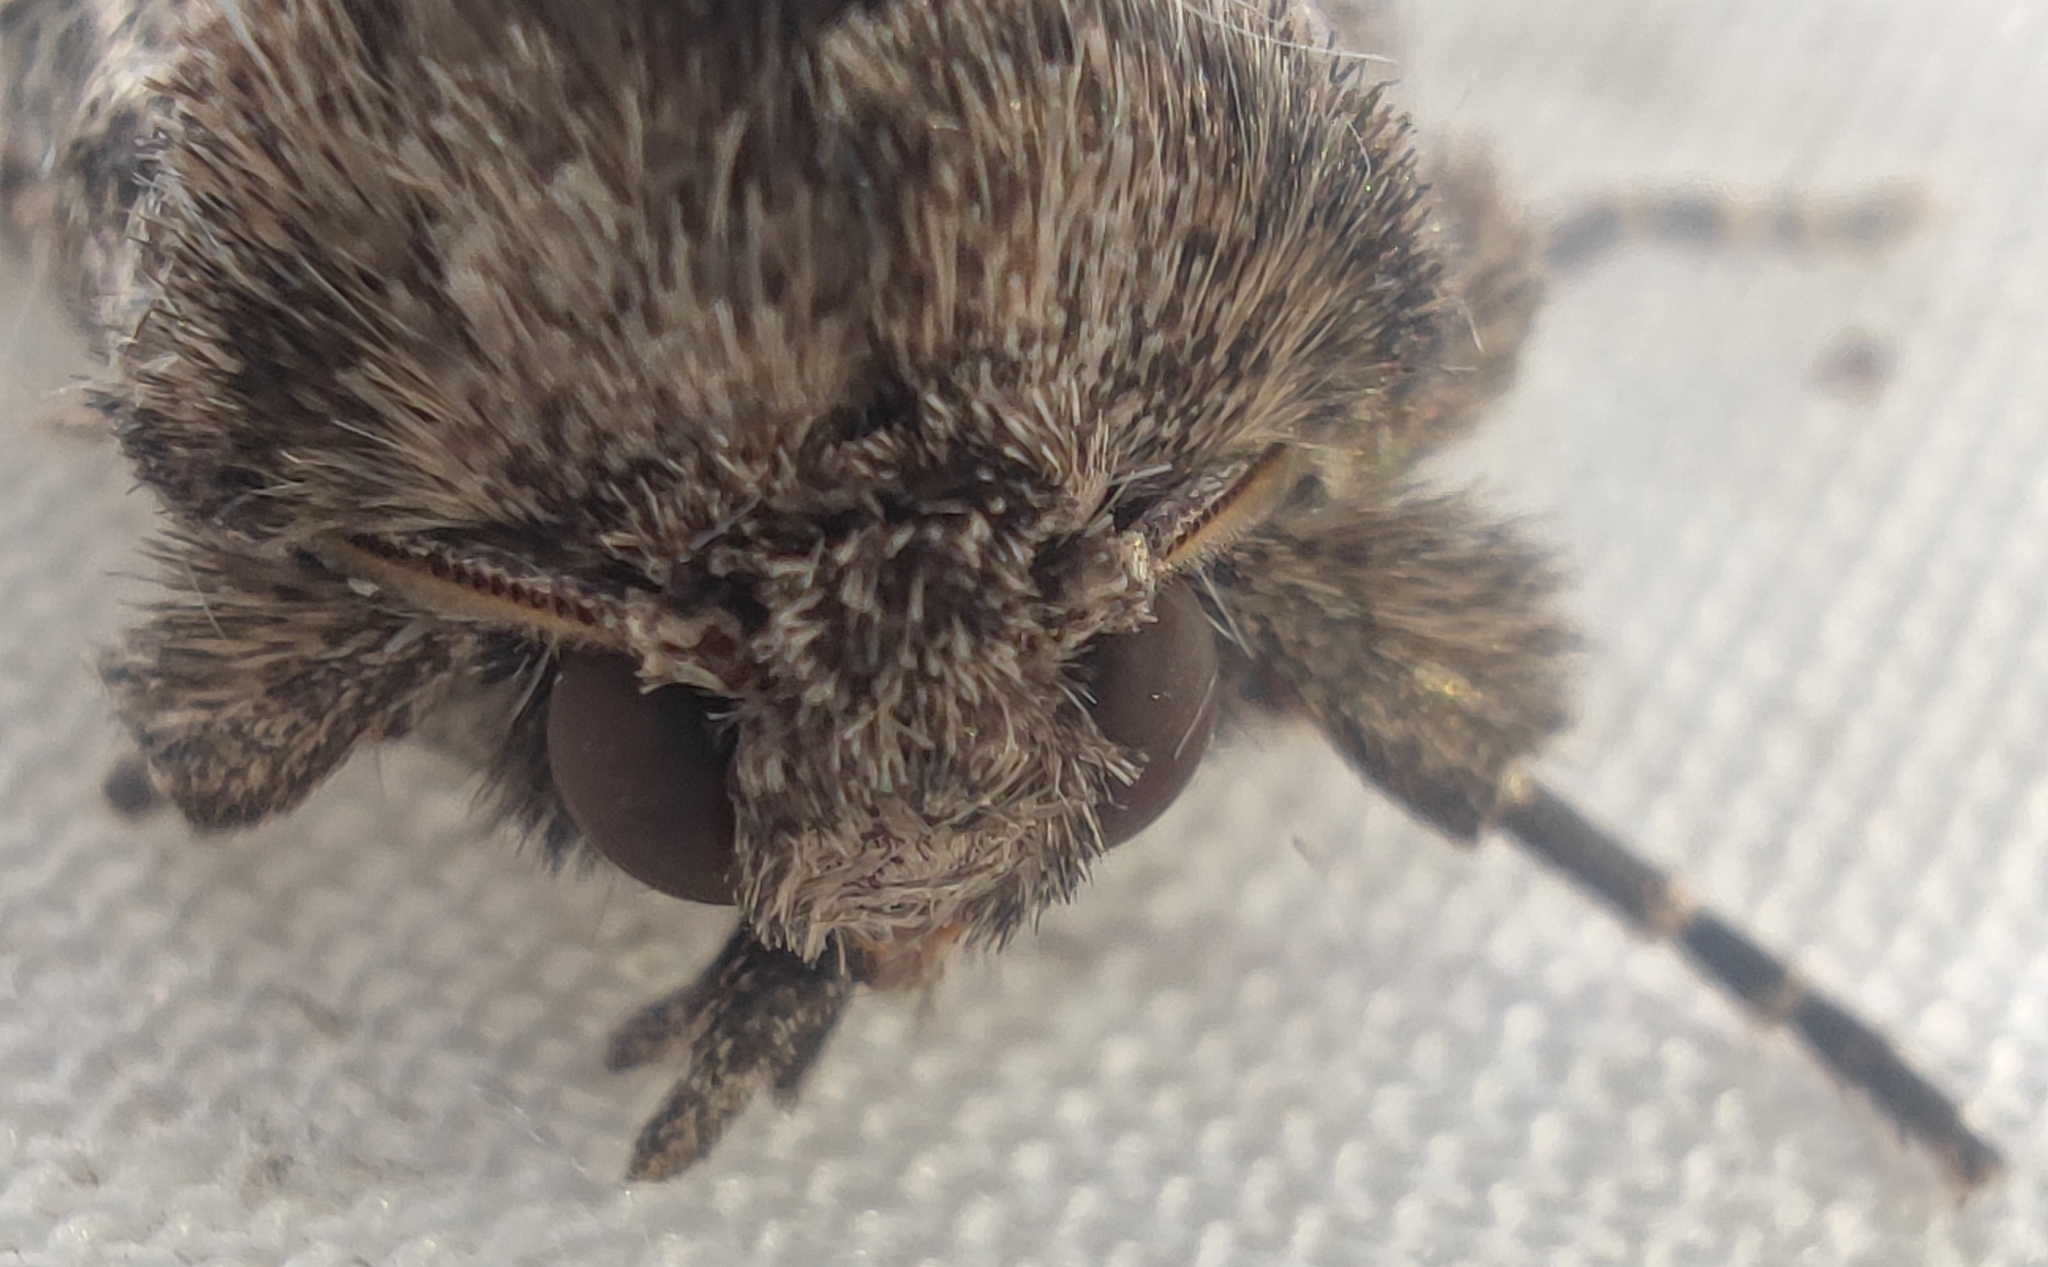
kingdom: Animalia
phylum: Arthropoda
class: Insecta
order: Lepidoptera
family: Noctuidae
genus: Thalpophila
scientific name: Thalpophila matura
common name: Straw underwing
